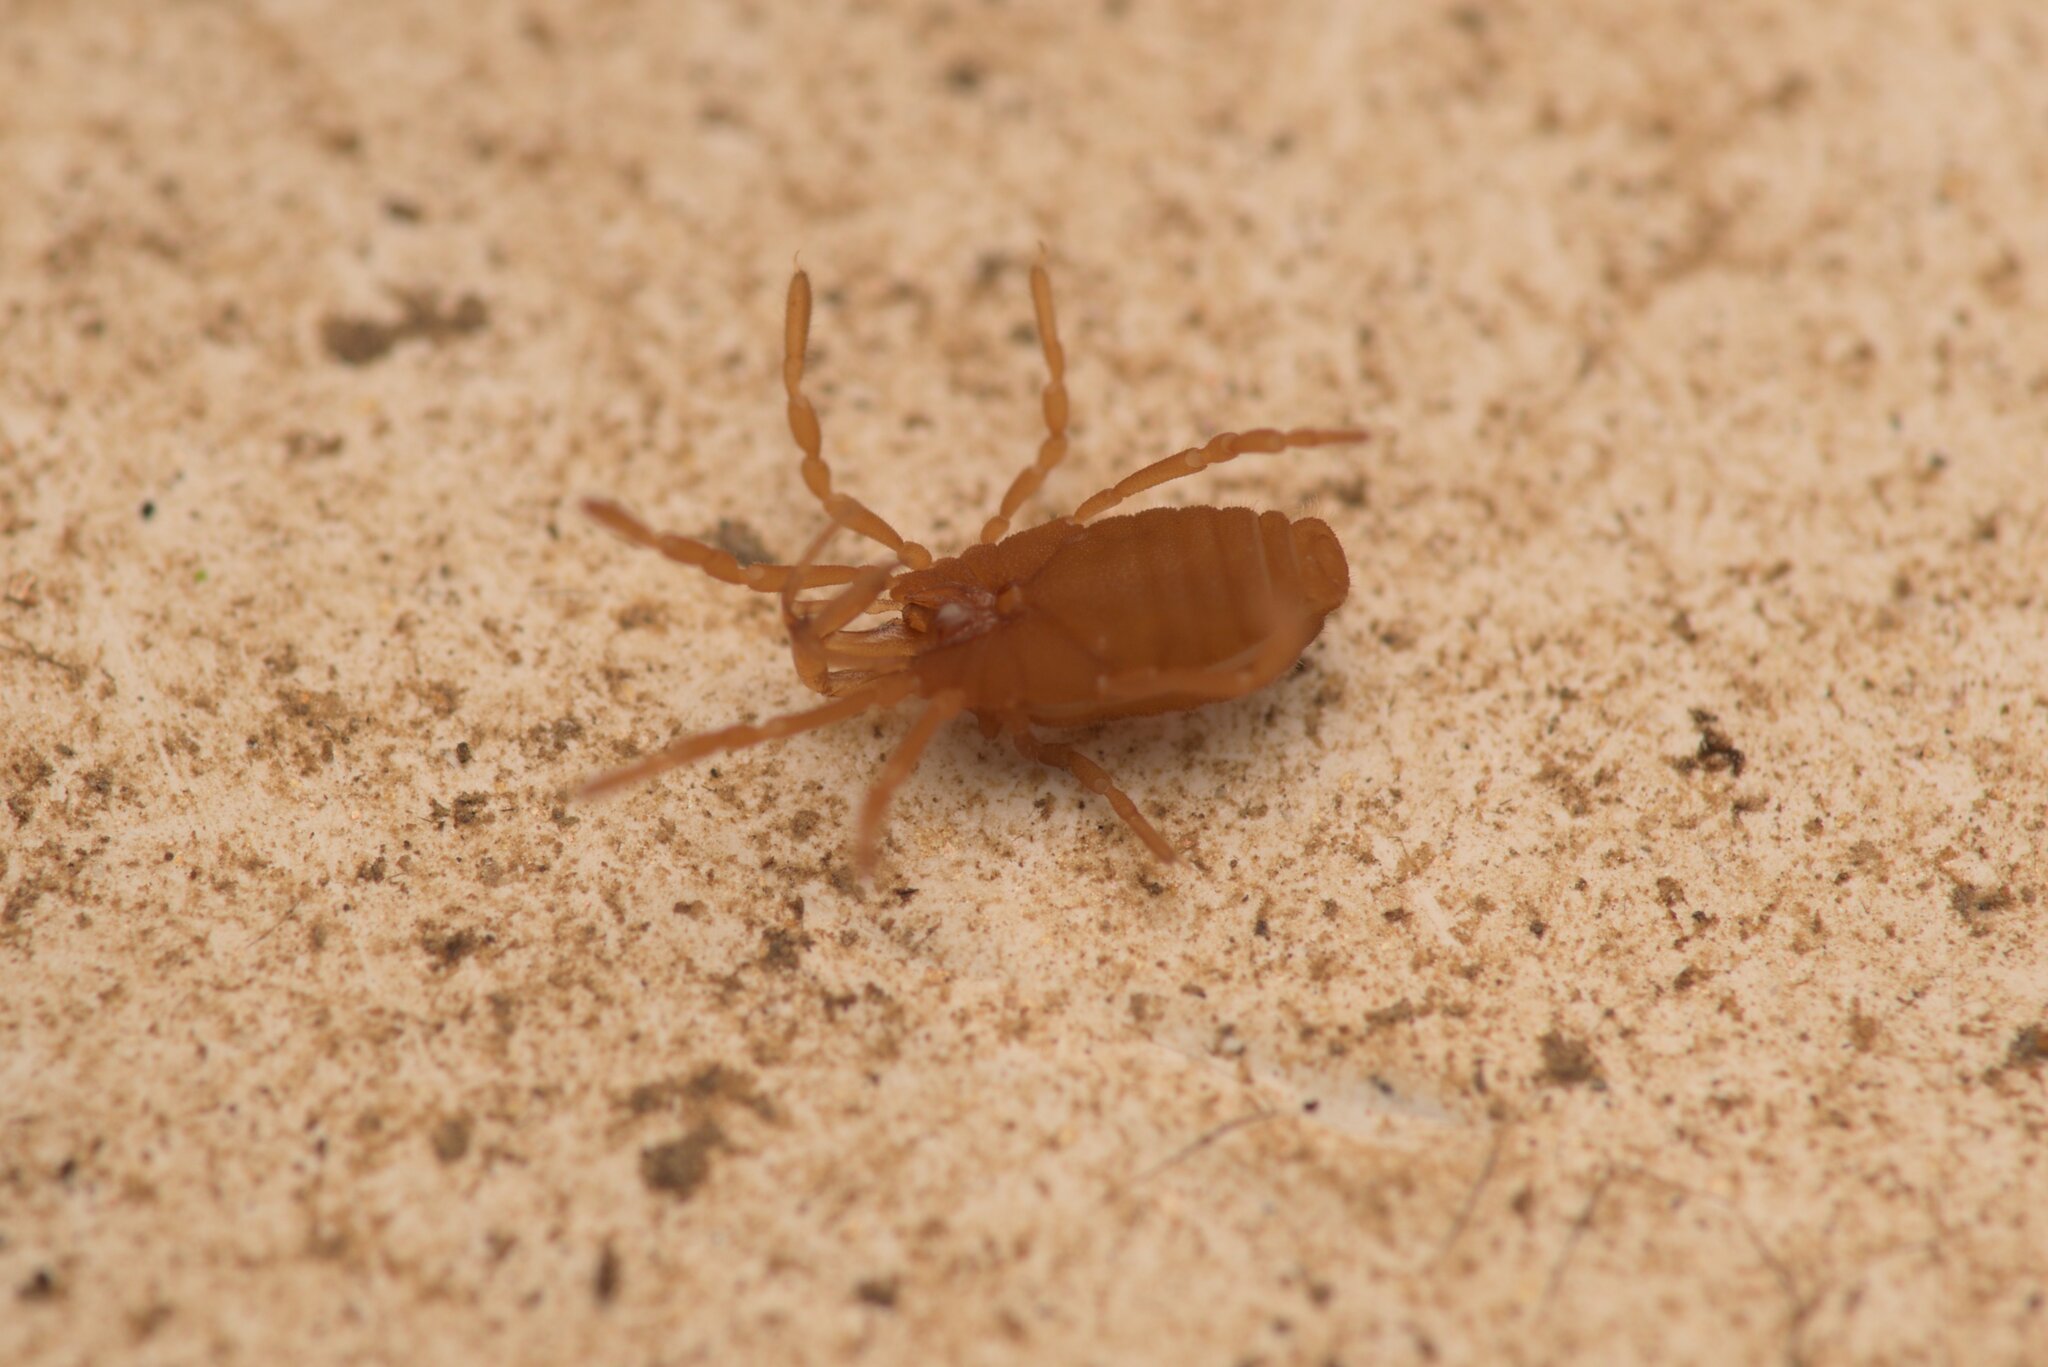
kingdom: Animalia
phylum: Arthropoda
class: Arachnida
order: Opiliones
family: Sironidae
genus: Siro
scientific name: Siro rubens
